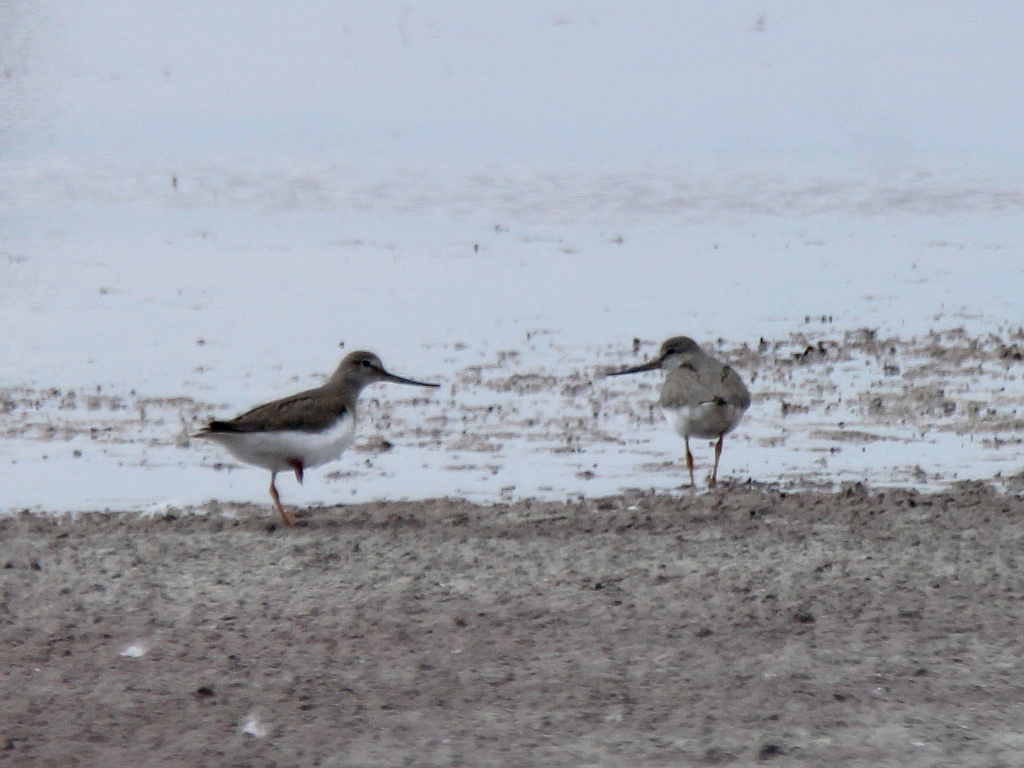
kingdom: Animalia
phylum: Chordata
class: Aves
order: Charadriiformes
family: Scolopacidae
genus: Xenus
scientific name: Xenus cinereus
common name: Terek sandpiper
